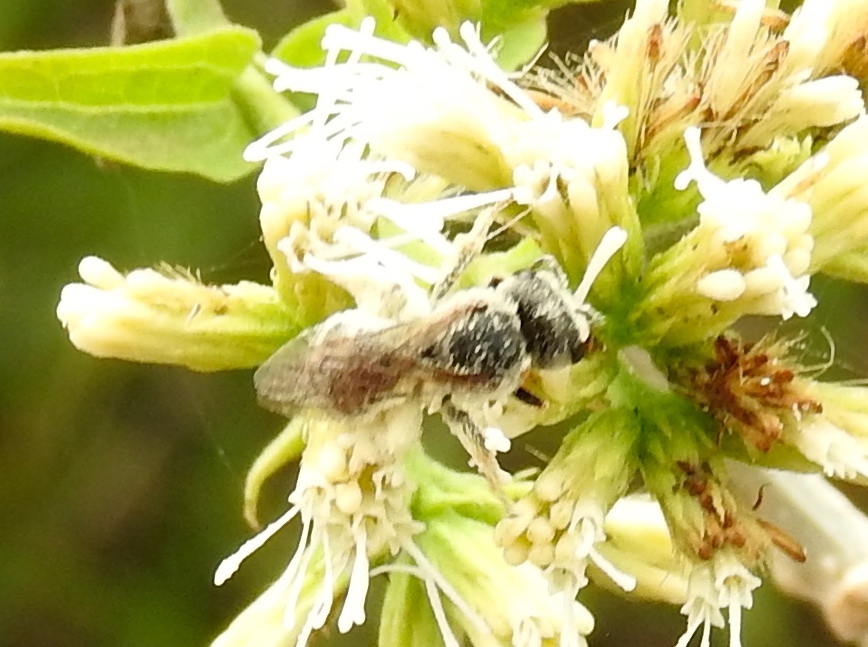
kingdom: Animalia
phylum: Arthropoda
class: Insecta
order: Hymenoptera
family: Halictidae
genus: Halictus
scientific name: Halictus
